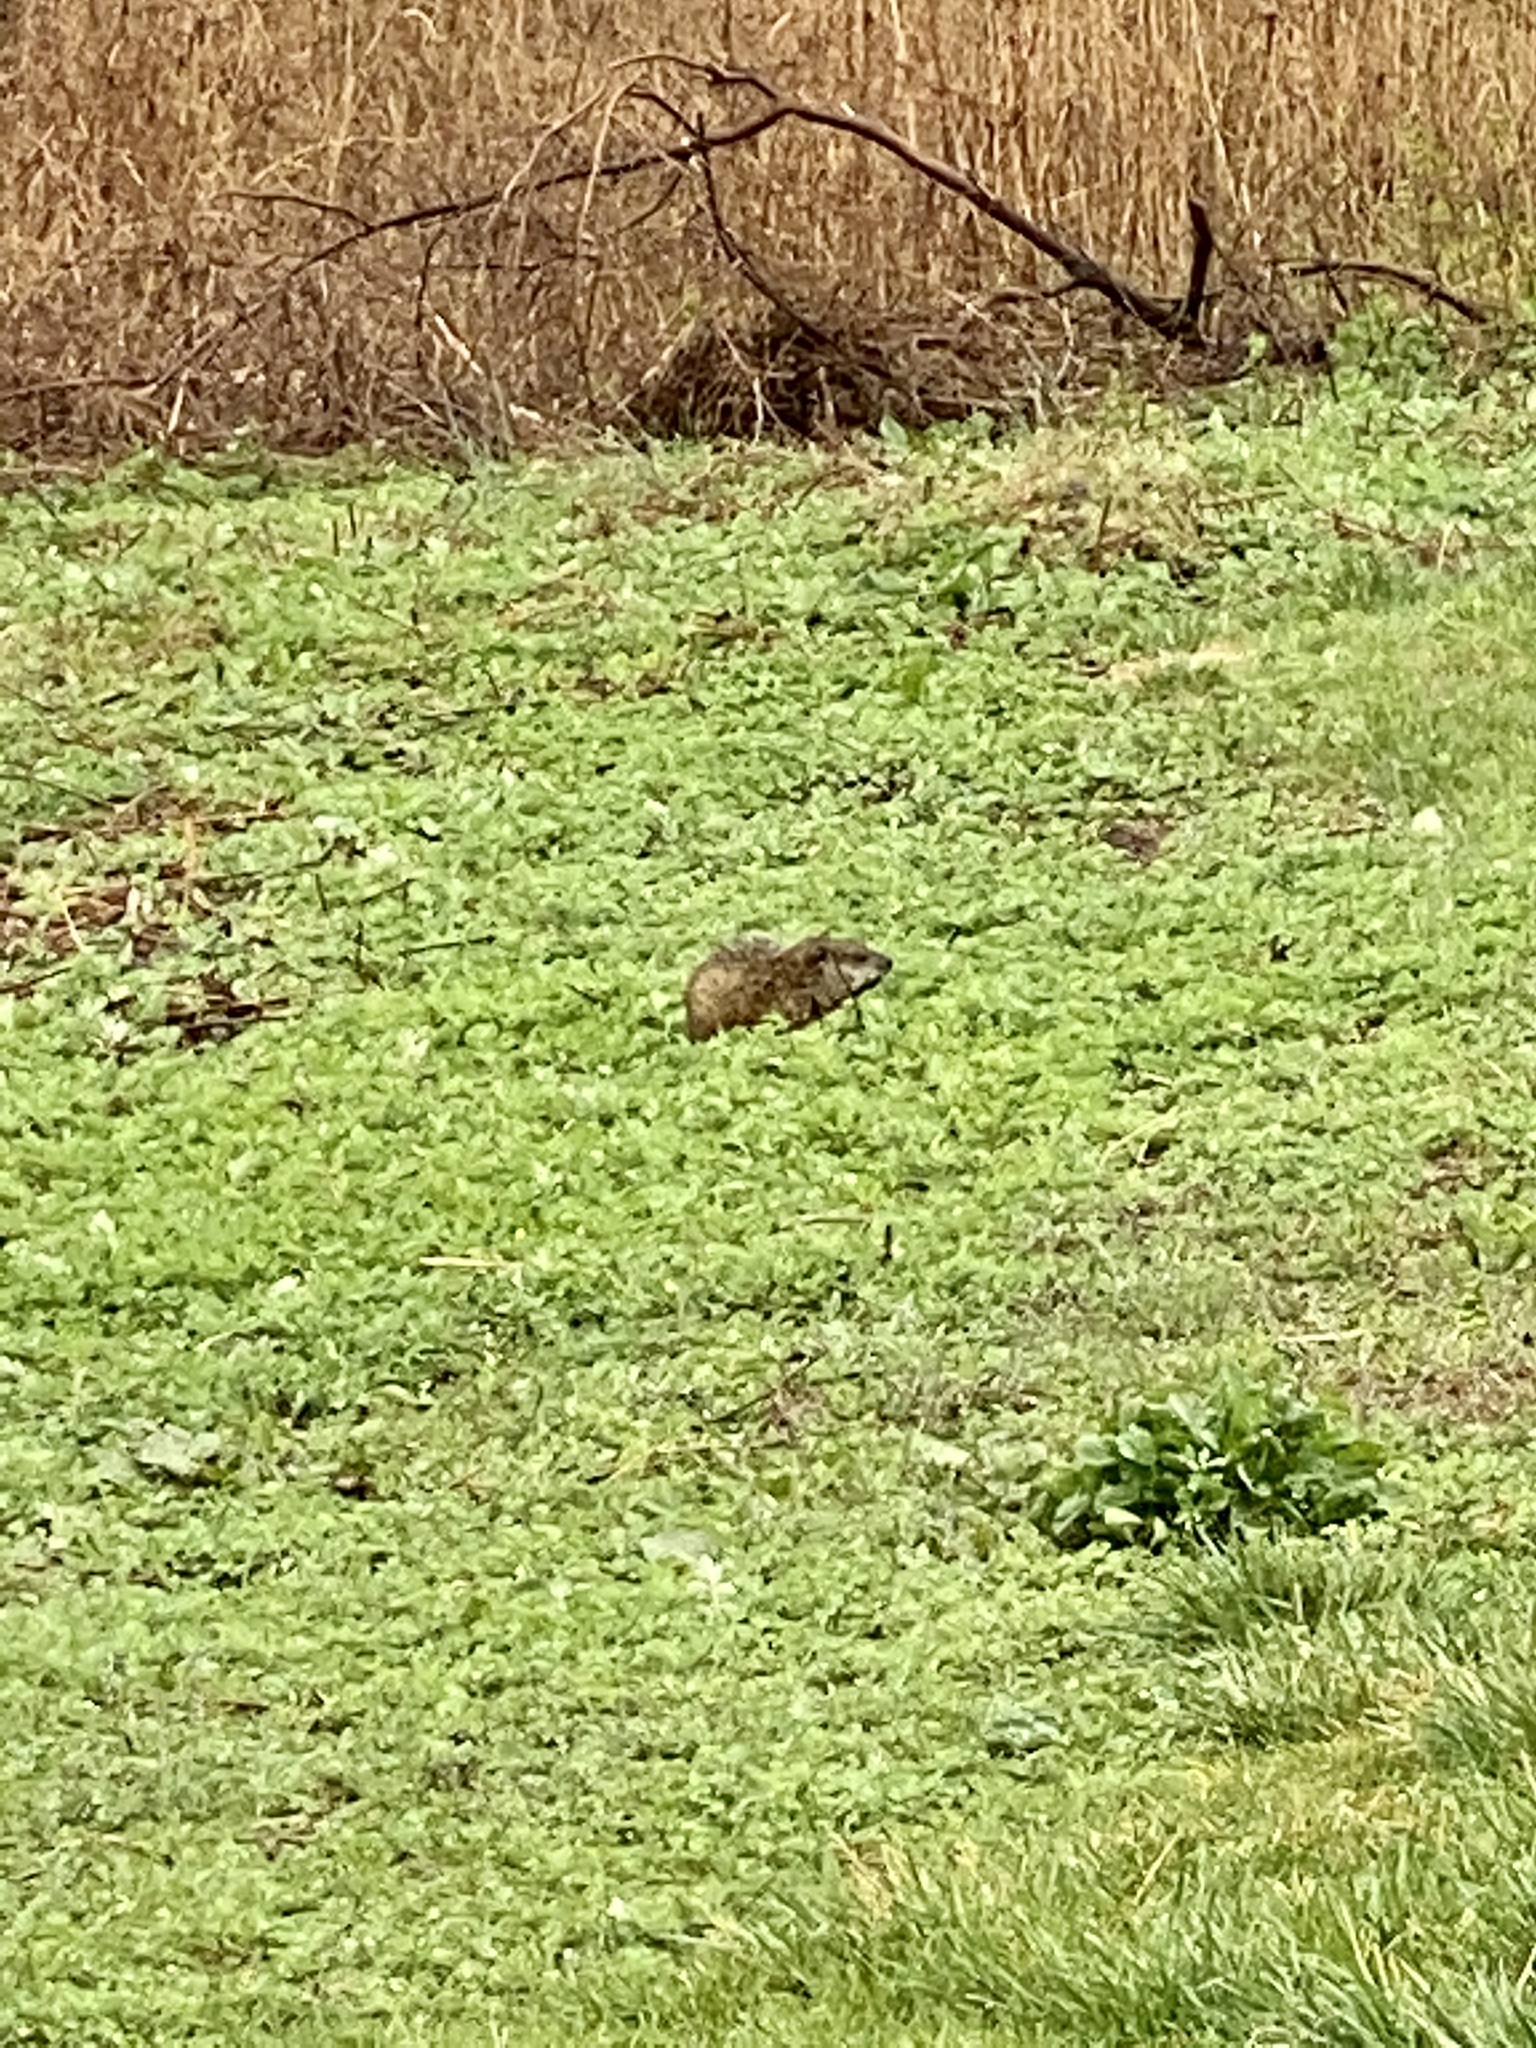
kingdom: Animalia
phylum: Chordata
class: Mammalia
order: Rodentia
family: Sciuridae
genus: Marmota
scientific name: Marmota monax
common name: Groundhog
